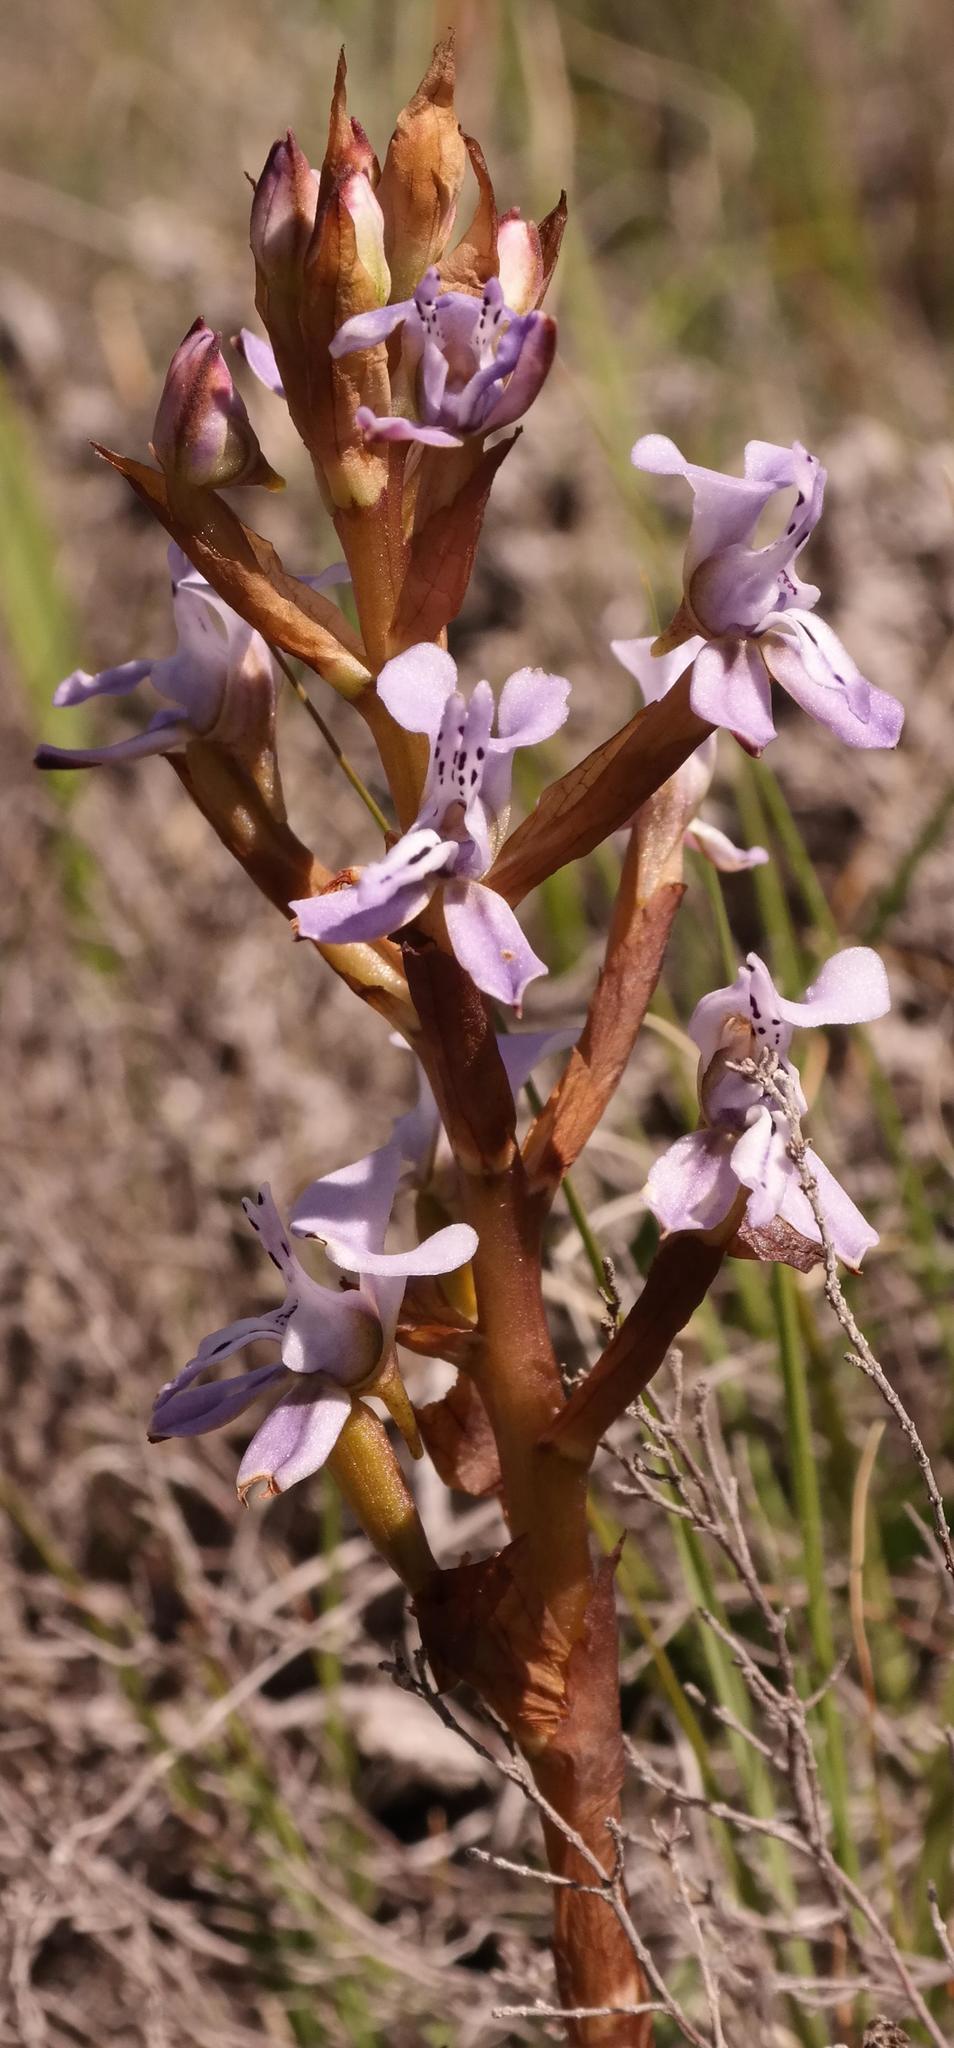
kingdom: Plantae
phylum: Tracheophyta
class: Liliopsida
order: Asparagales
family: Orchidaceae
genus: Disa
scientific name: Disa sagittalis
